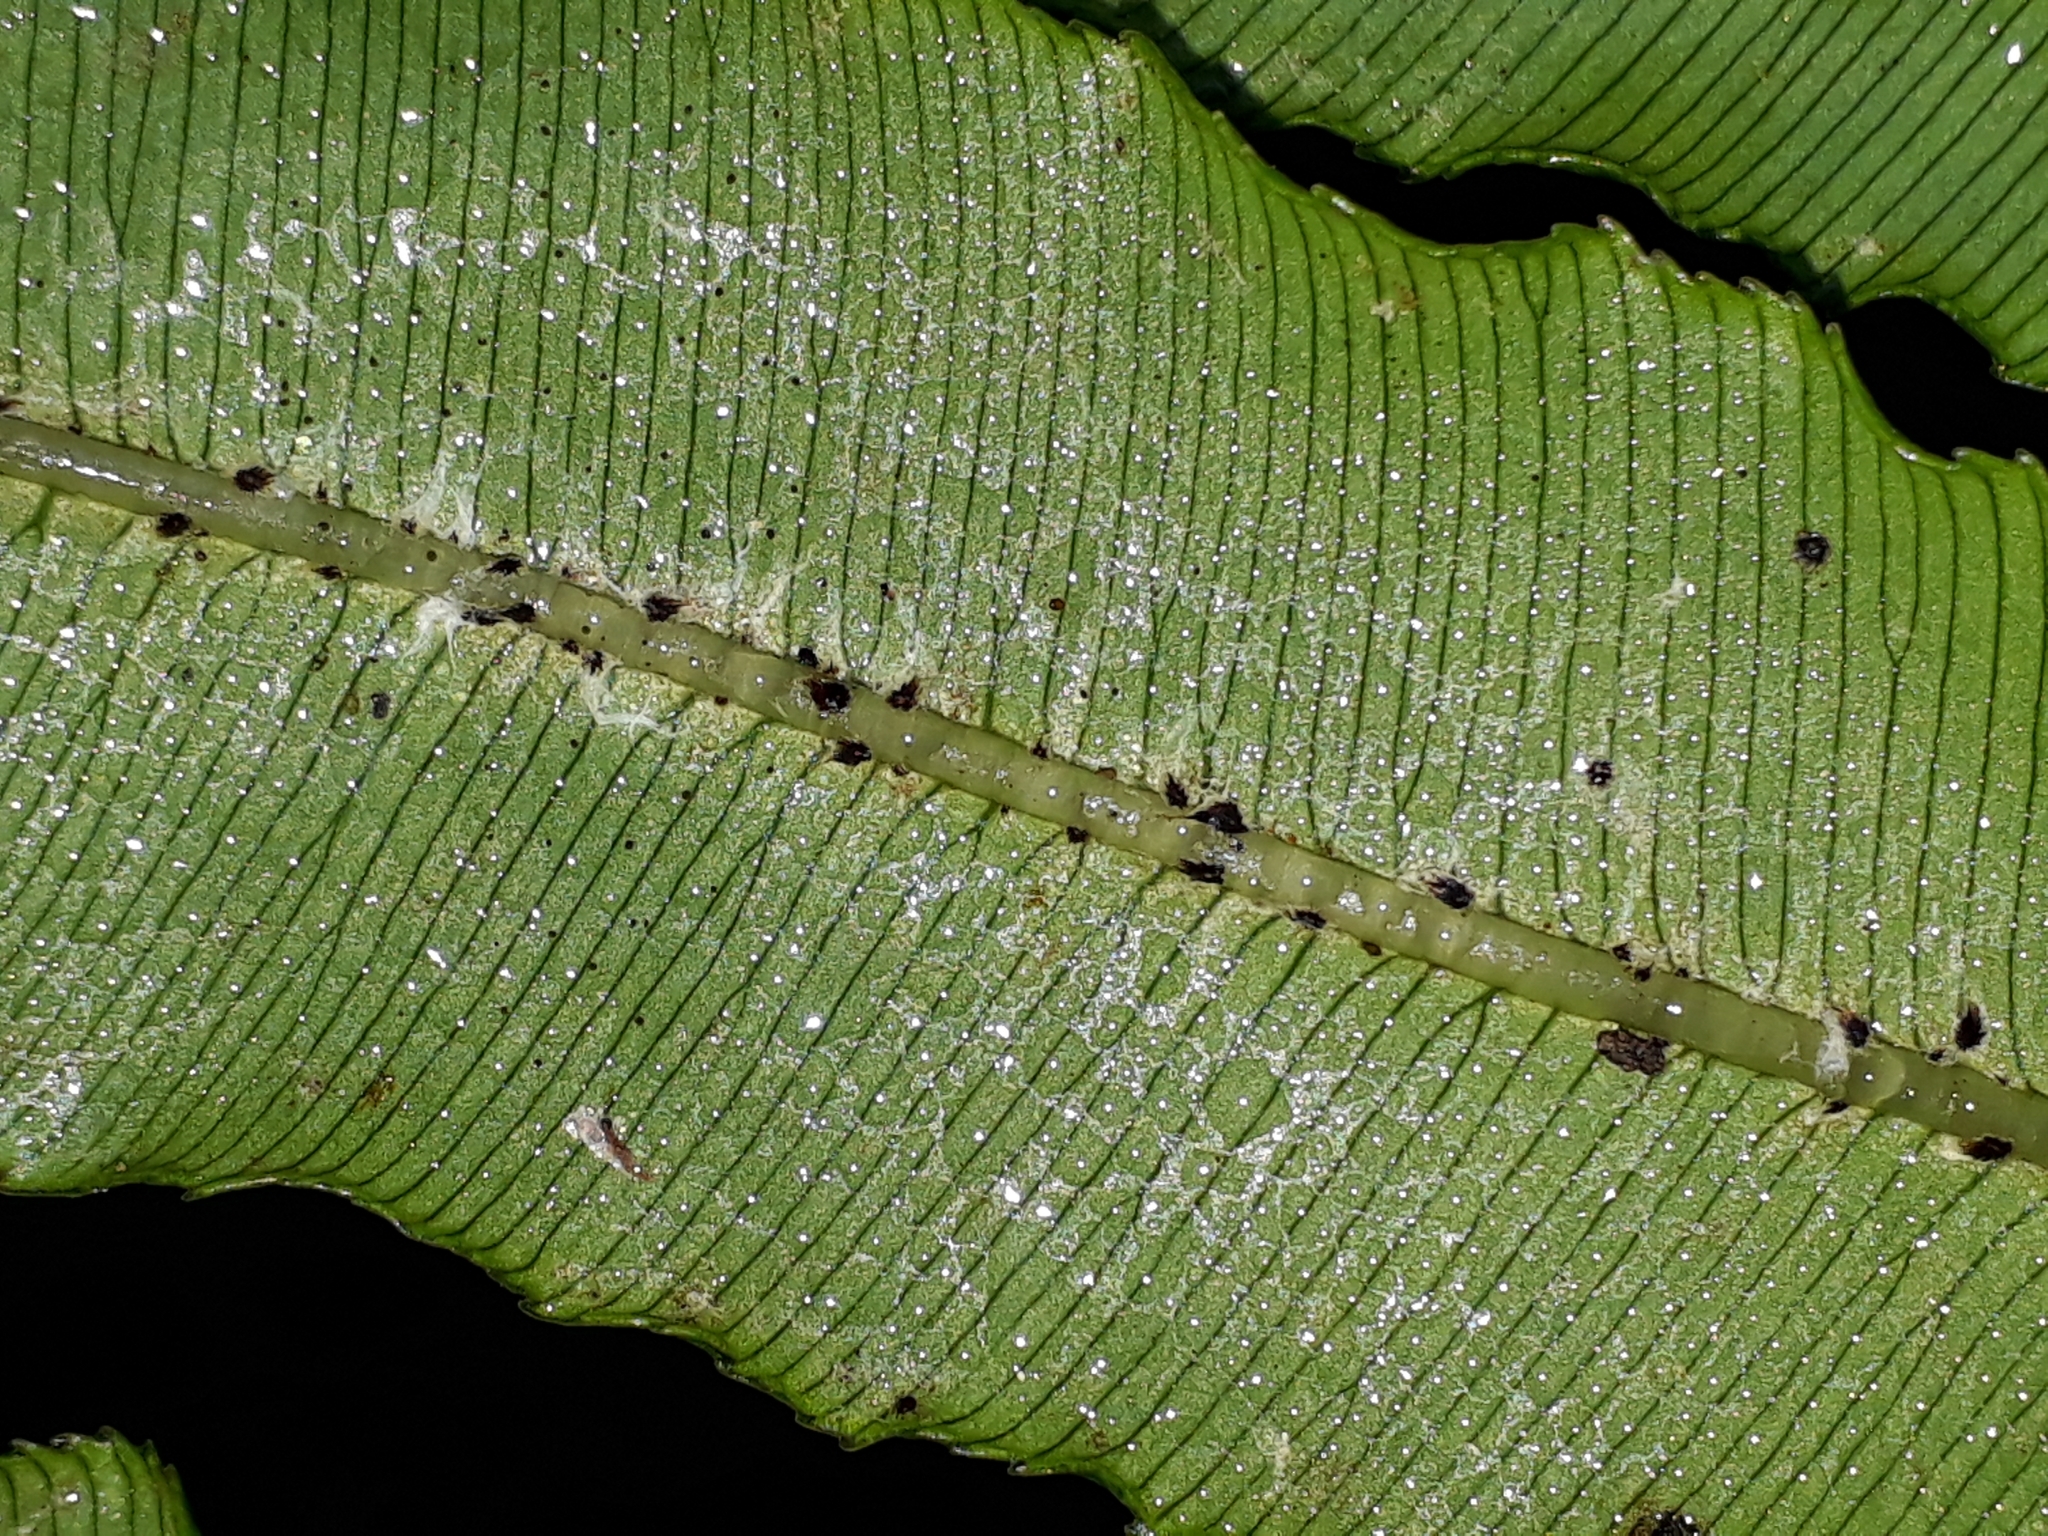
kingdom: Plantae
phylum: Tracheophyta
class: Polypodiopsida
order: Polypodiales
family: Blechnaceae
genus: Parablechnum
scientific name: Parablechnum novae-zelandiae
